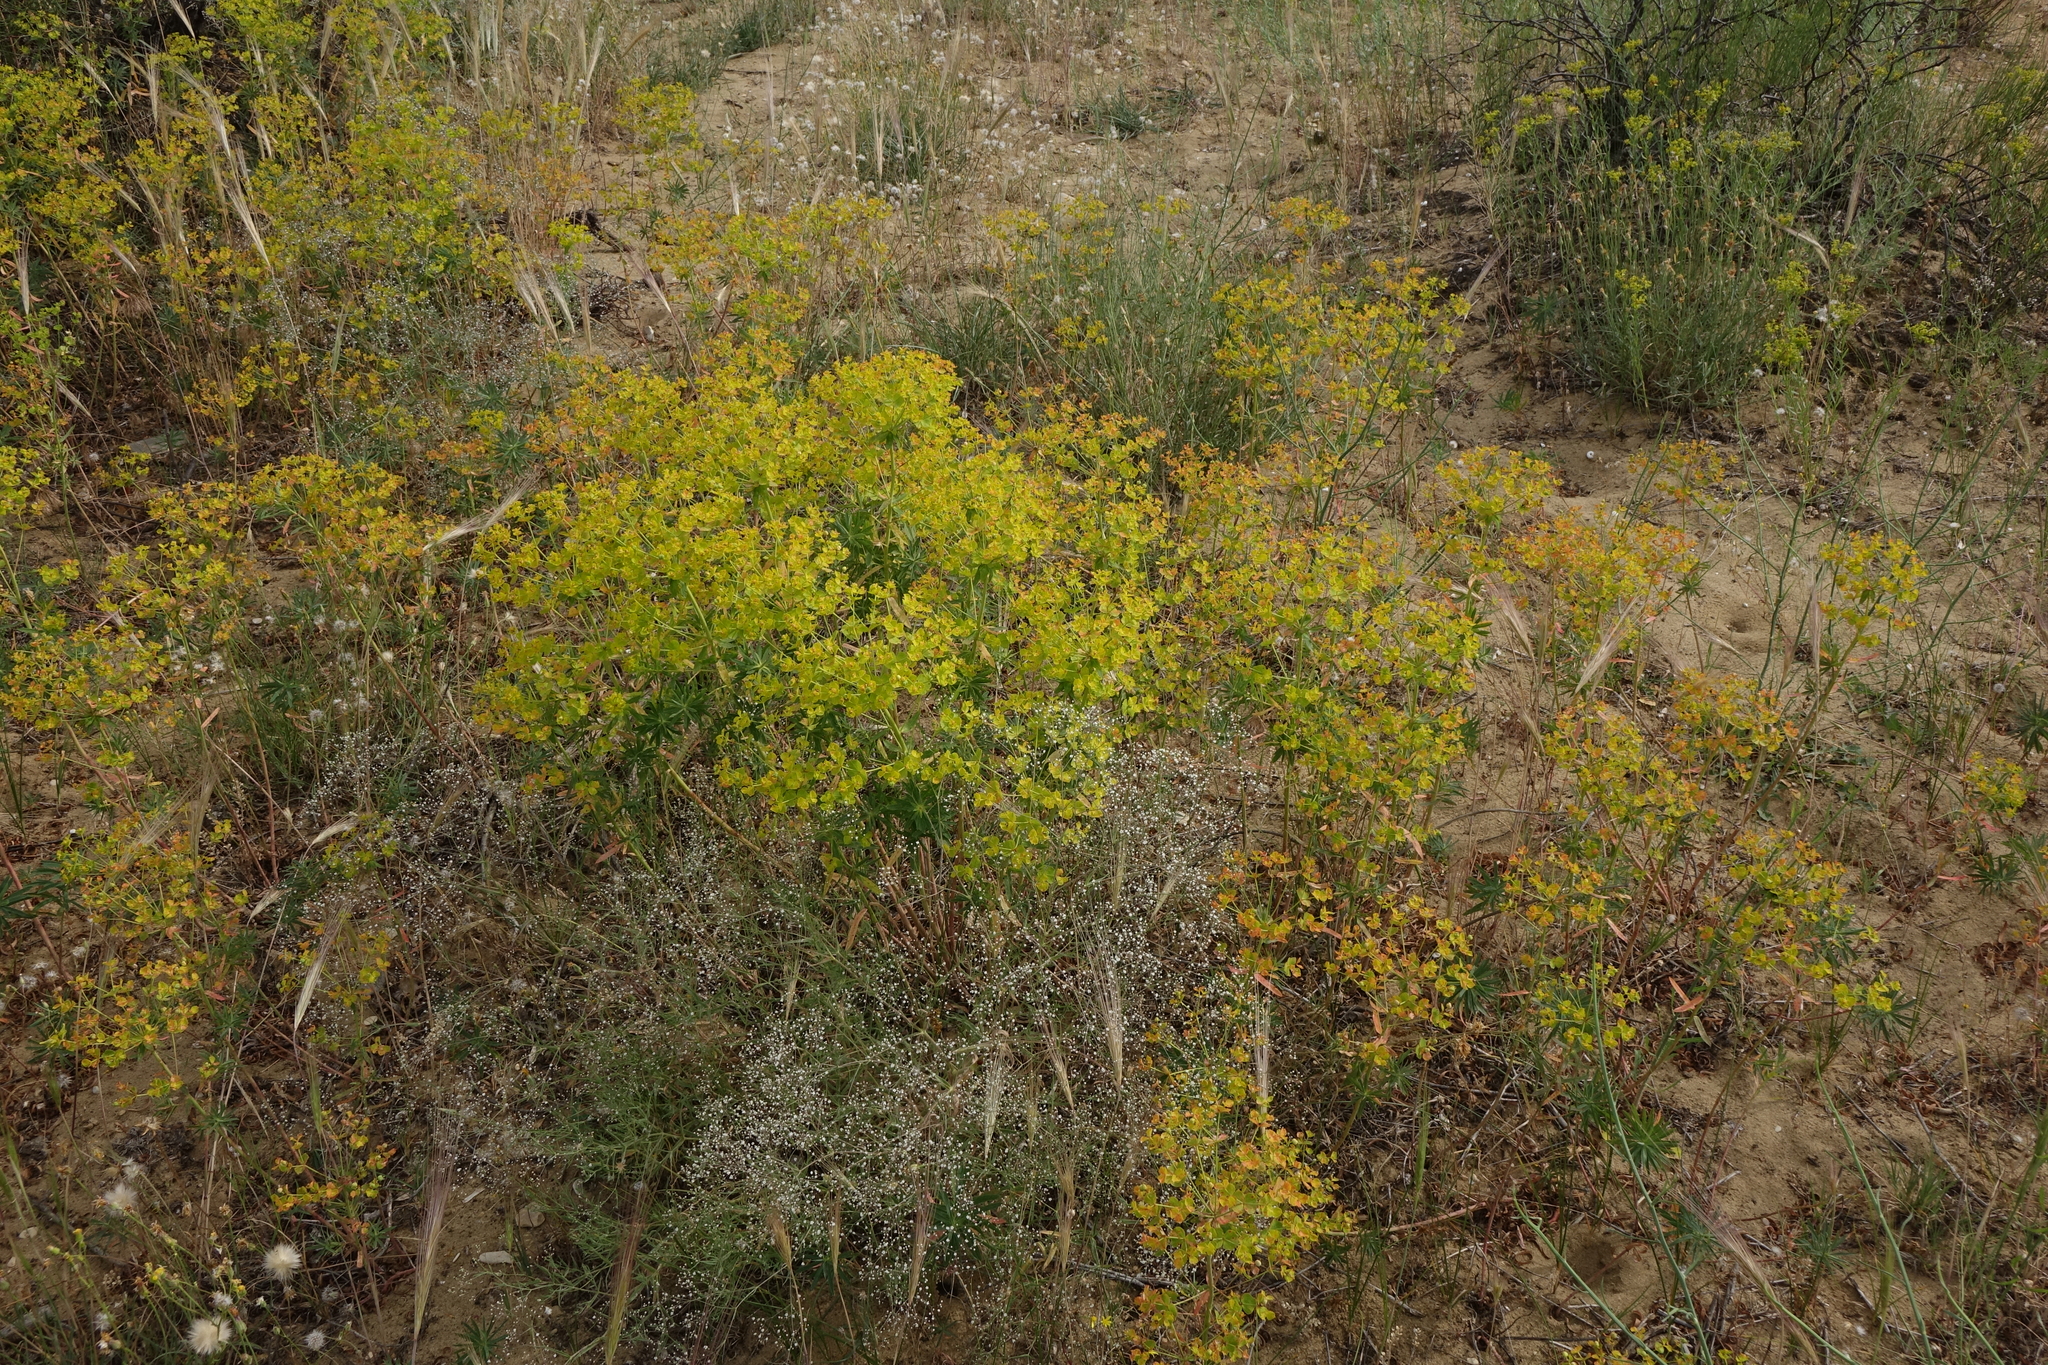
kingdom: Plantae
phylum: Tracheophyta
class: Magnoliopsida
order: Malpighiales
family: Euphorbiaceae
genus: Euphorbia
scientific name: Euphorbia seguieriana
